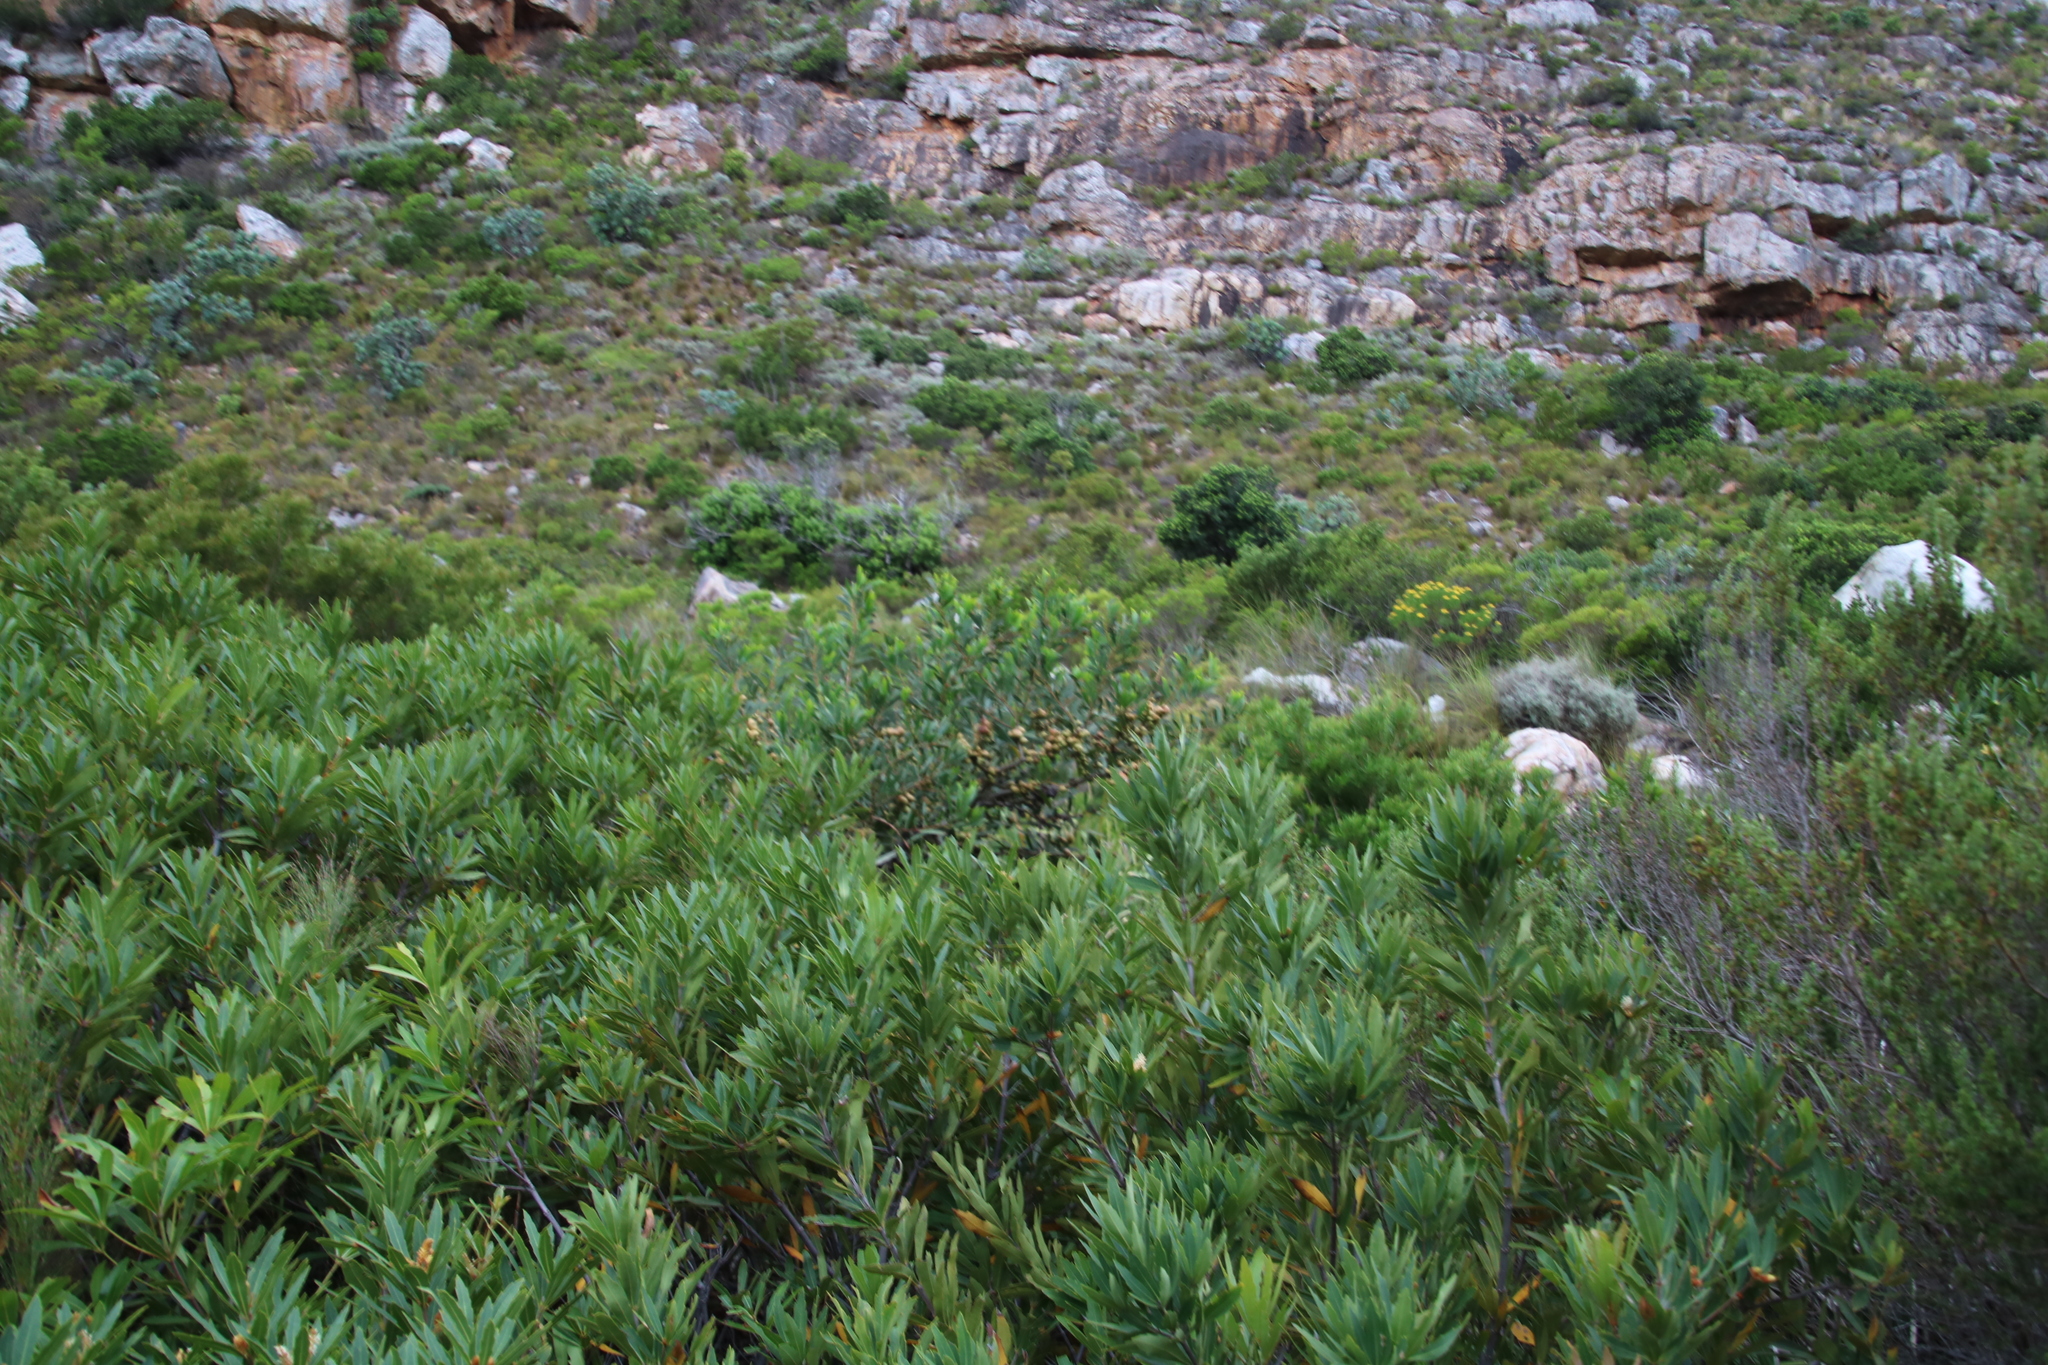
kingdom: Animalia
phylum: Arthropoda
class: Insecta
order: Hymenoptera
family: Pteromalidae
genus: Trichilogaster
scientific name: Trichilogaster acaciaelongifoliae
